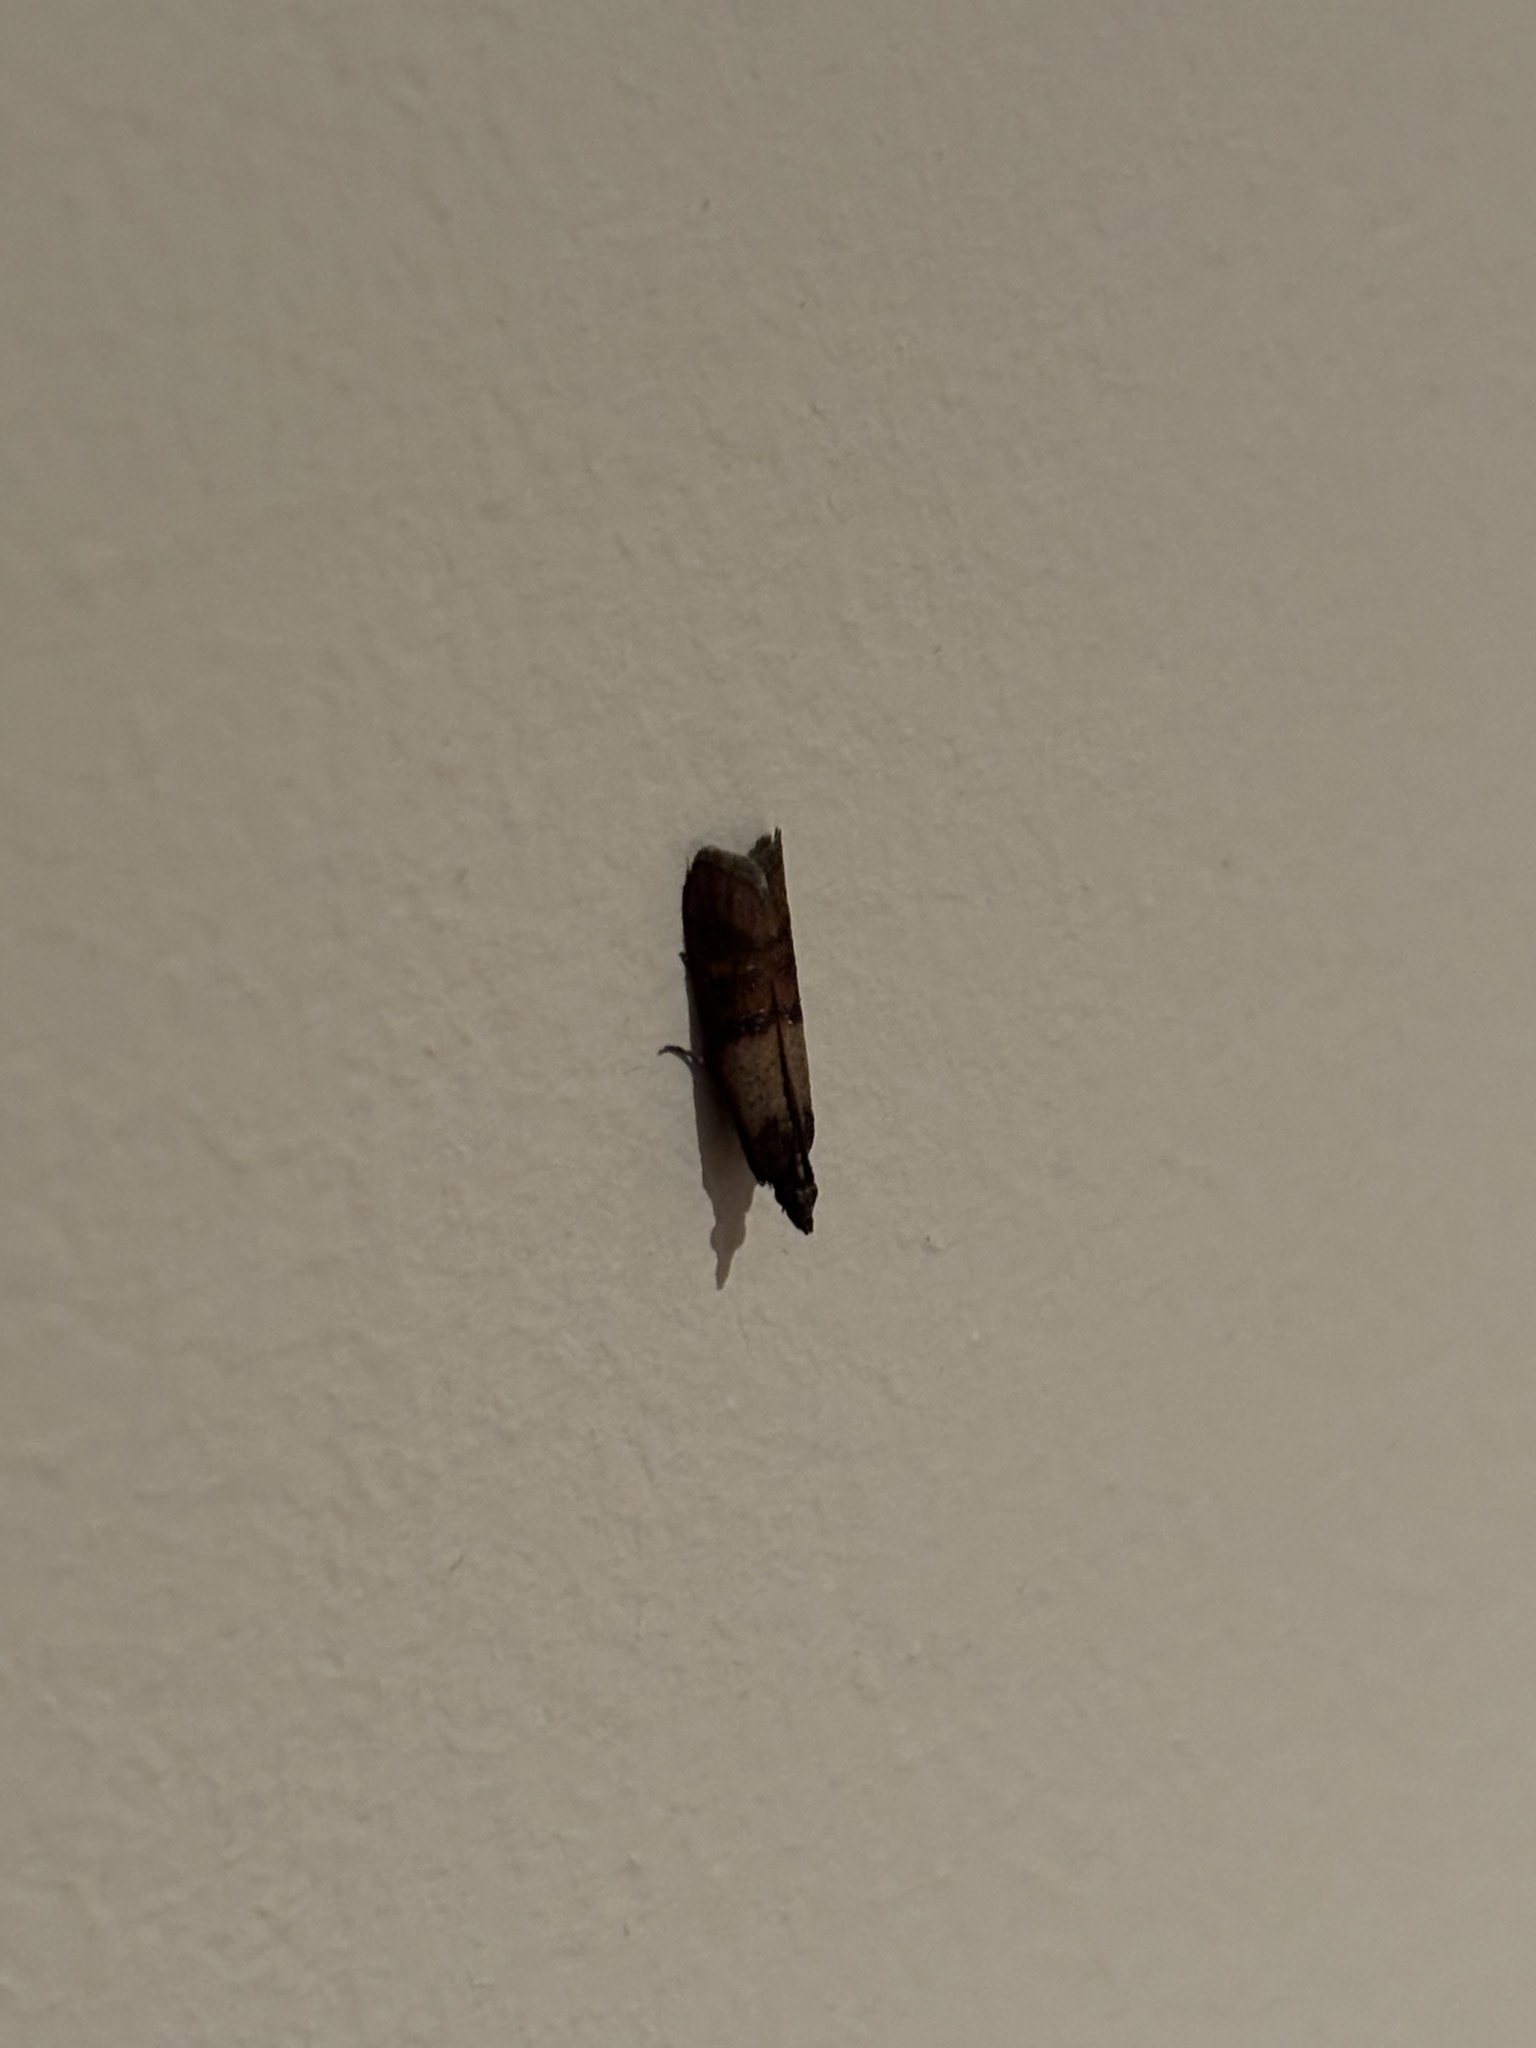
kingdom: Animalia
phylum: Arthropoda
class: Insecta
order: Lepidoptera
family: Pyralidae
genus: Plodia
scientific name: Plodia interpunctella
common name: Indian meal moth
